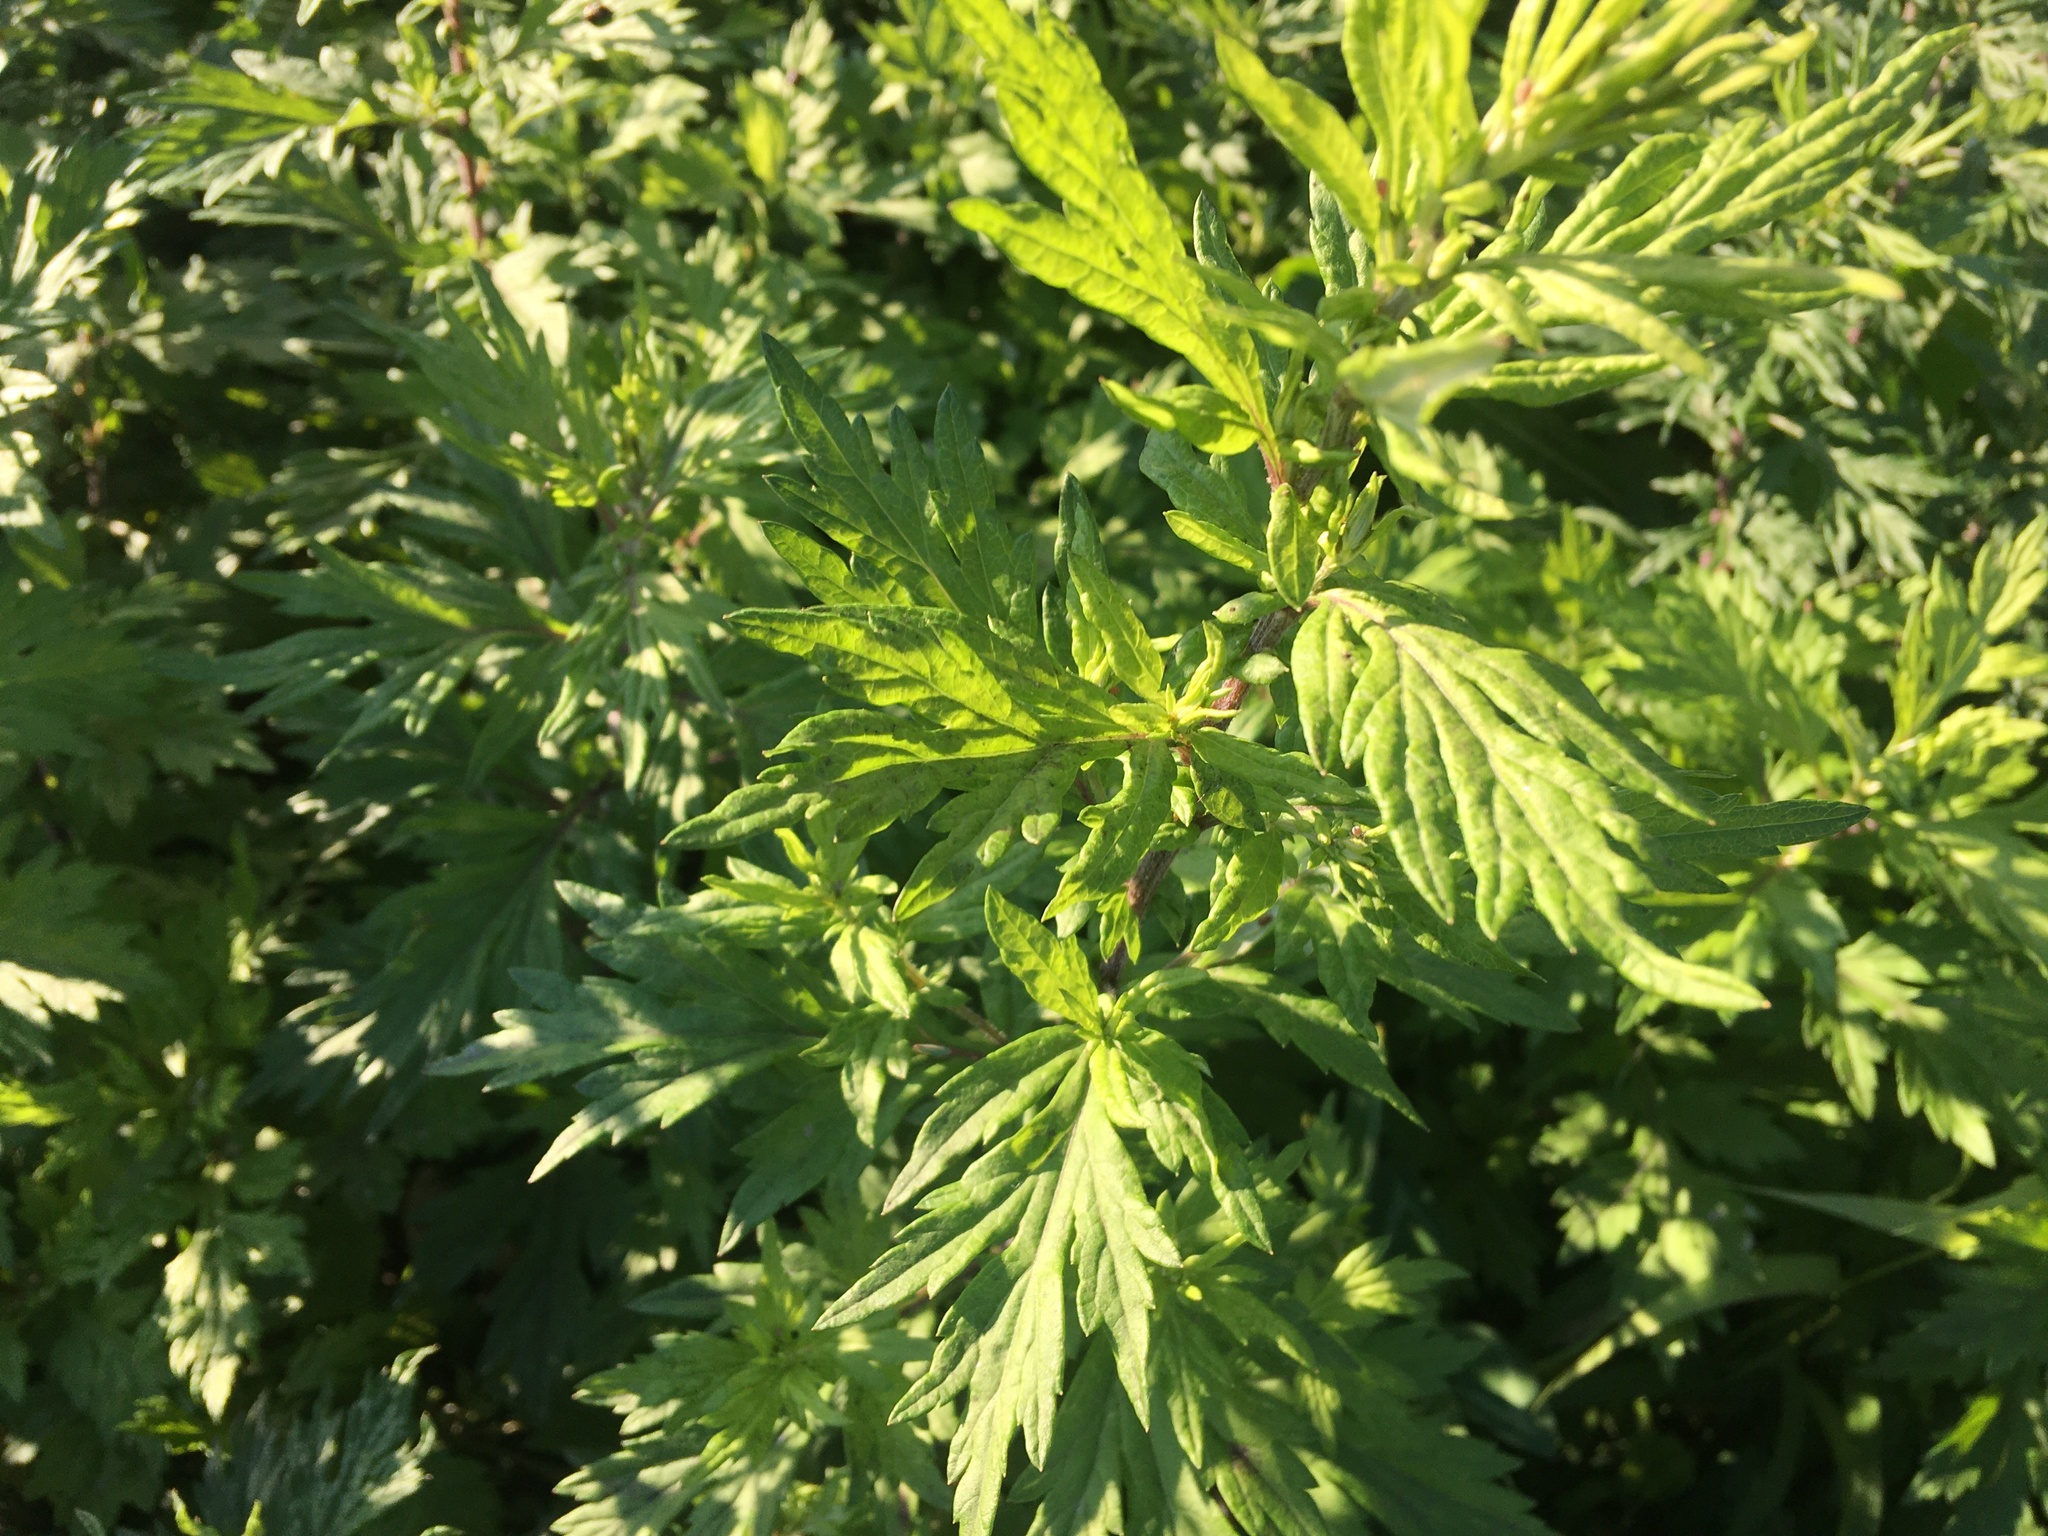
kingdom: Plantae
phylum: Tracheophyta
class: Magnoliopsida
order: Asterales
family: Asteraceae
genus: Artemisia
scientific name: Artemisia vulgaris
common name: Mugwort
